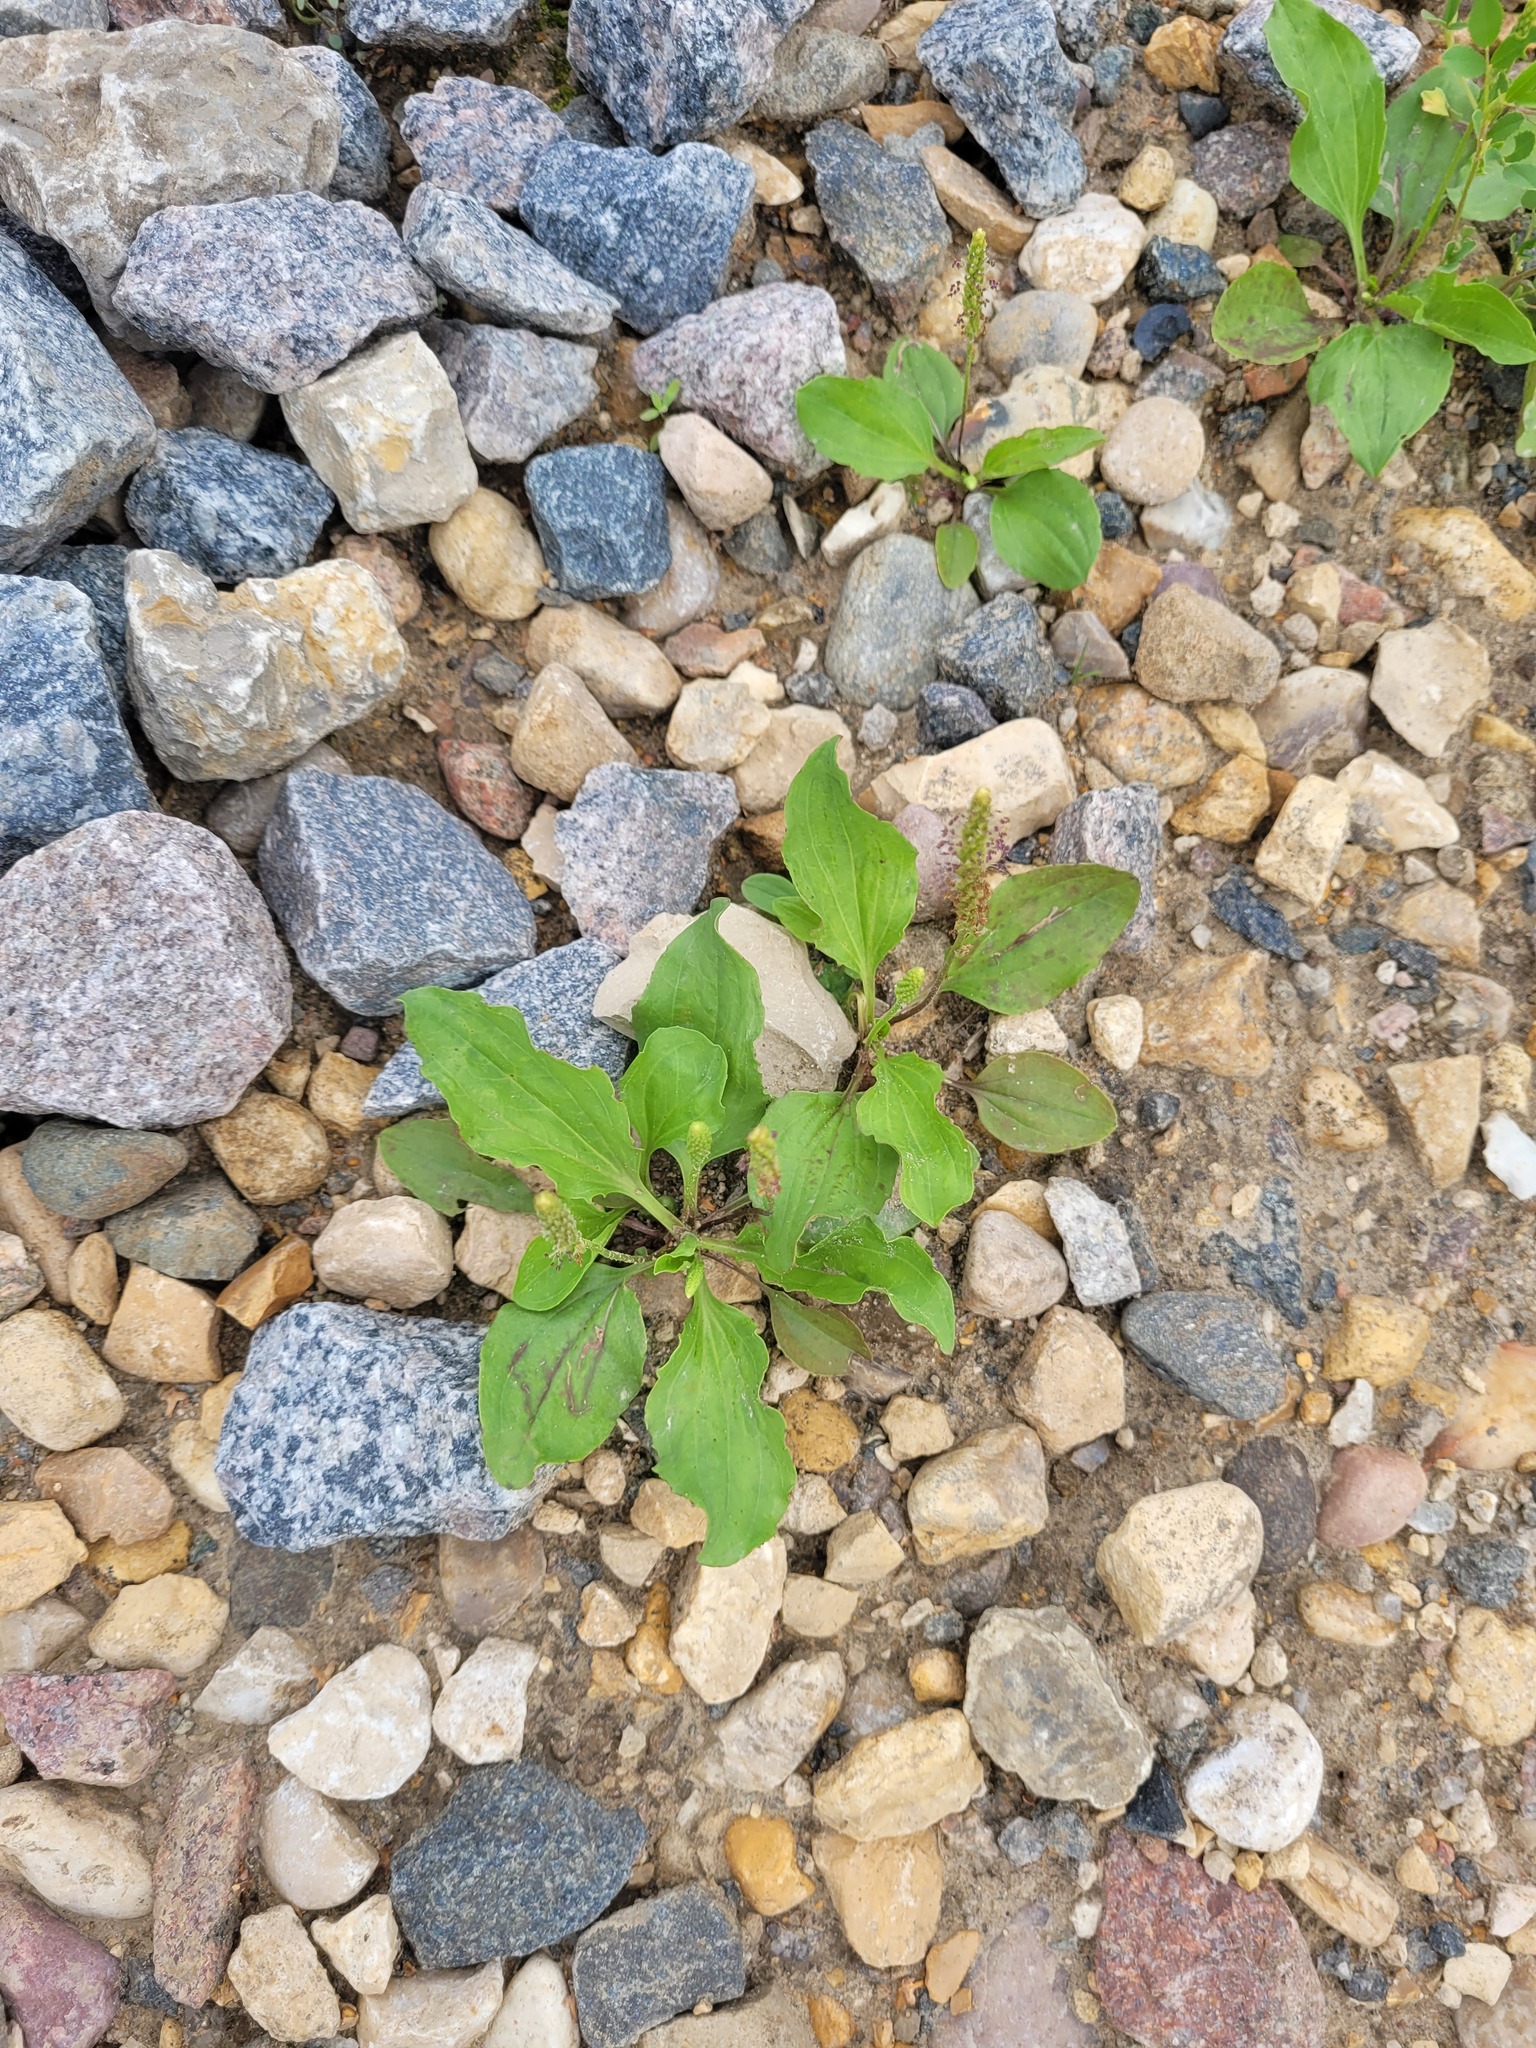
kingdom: Plantae
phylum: Tracheophyta
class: Magnoliopsida
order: Lamiales
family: Plantaginaceae
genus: Plantago
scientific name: Plantago uliginosa
